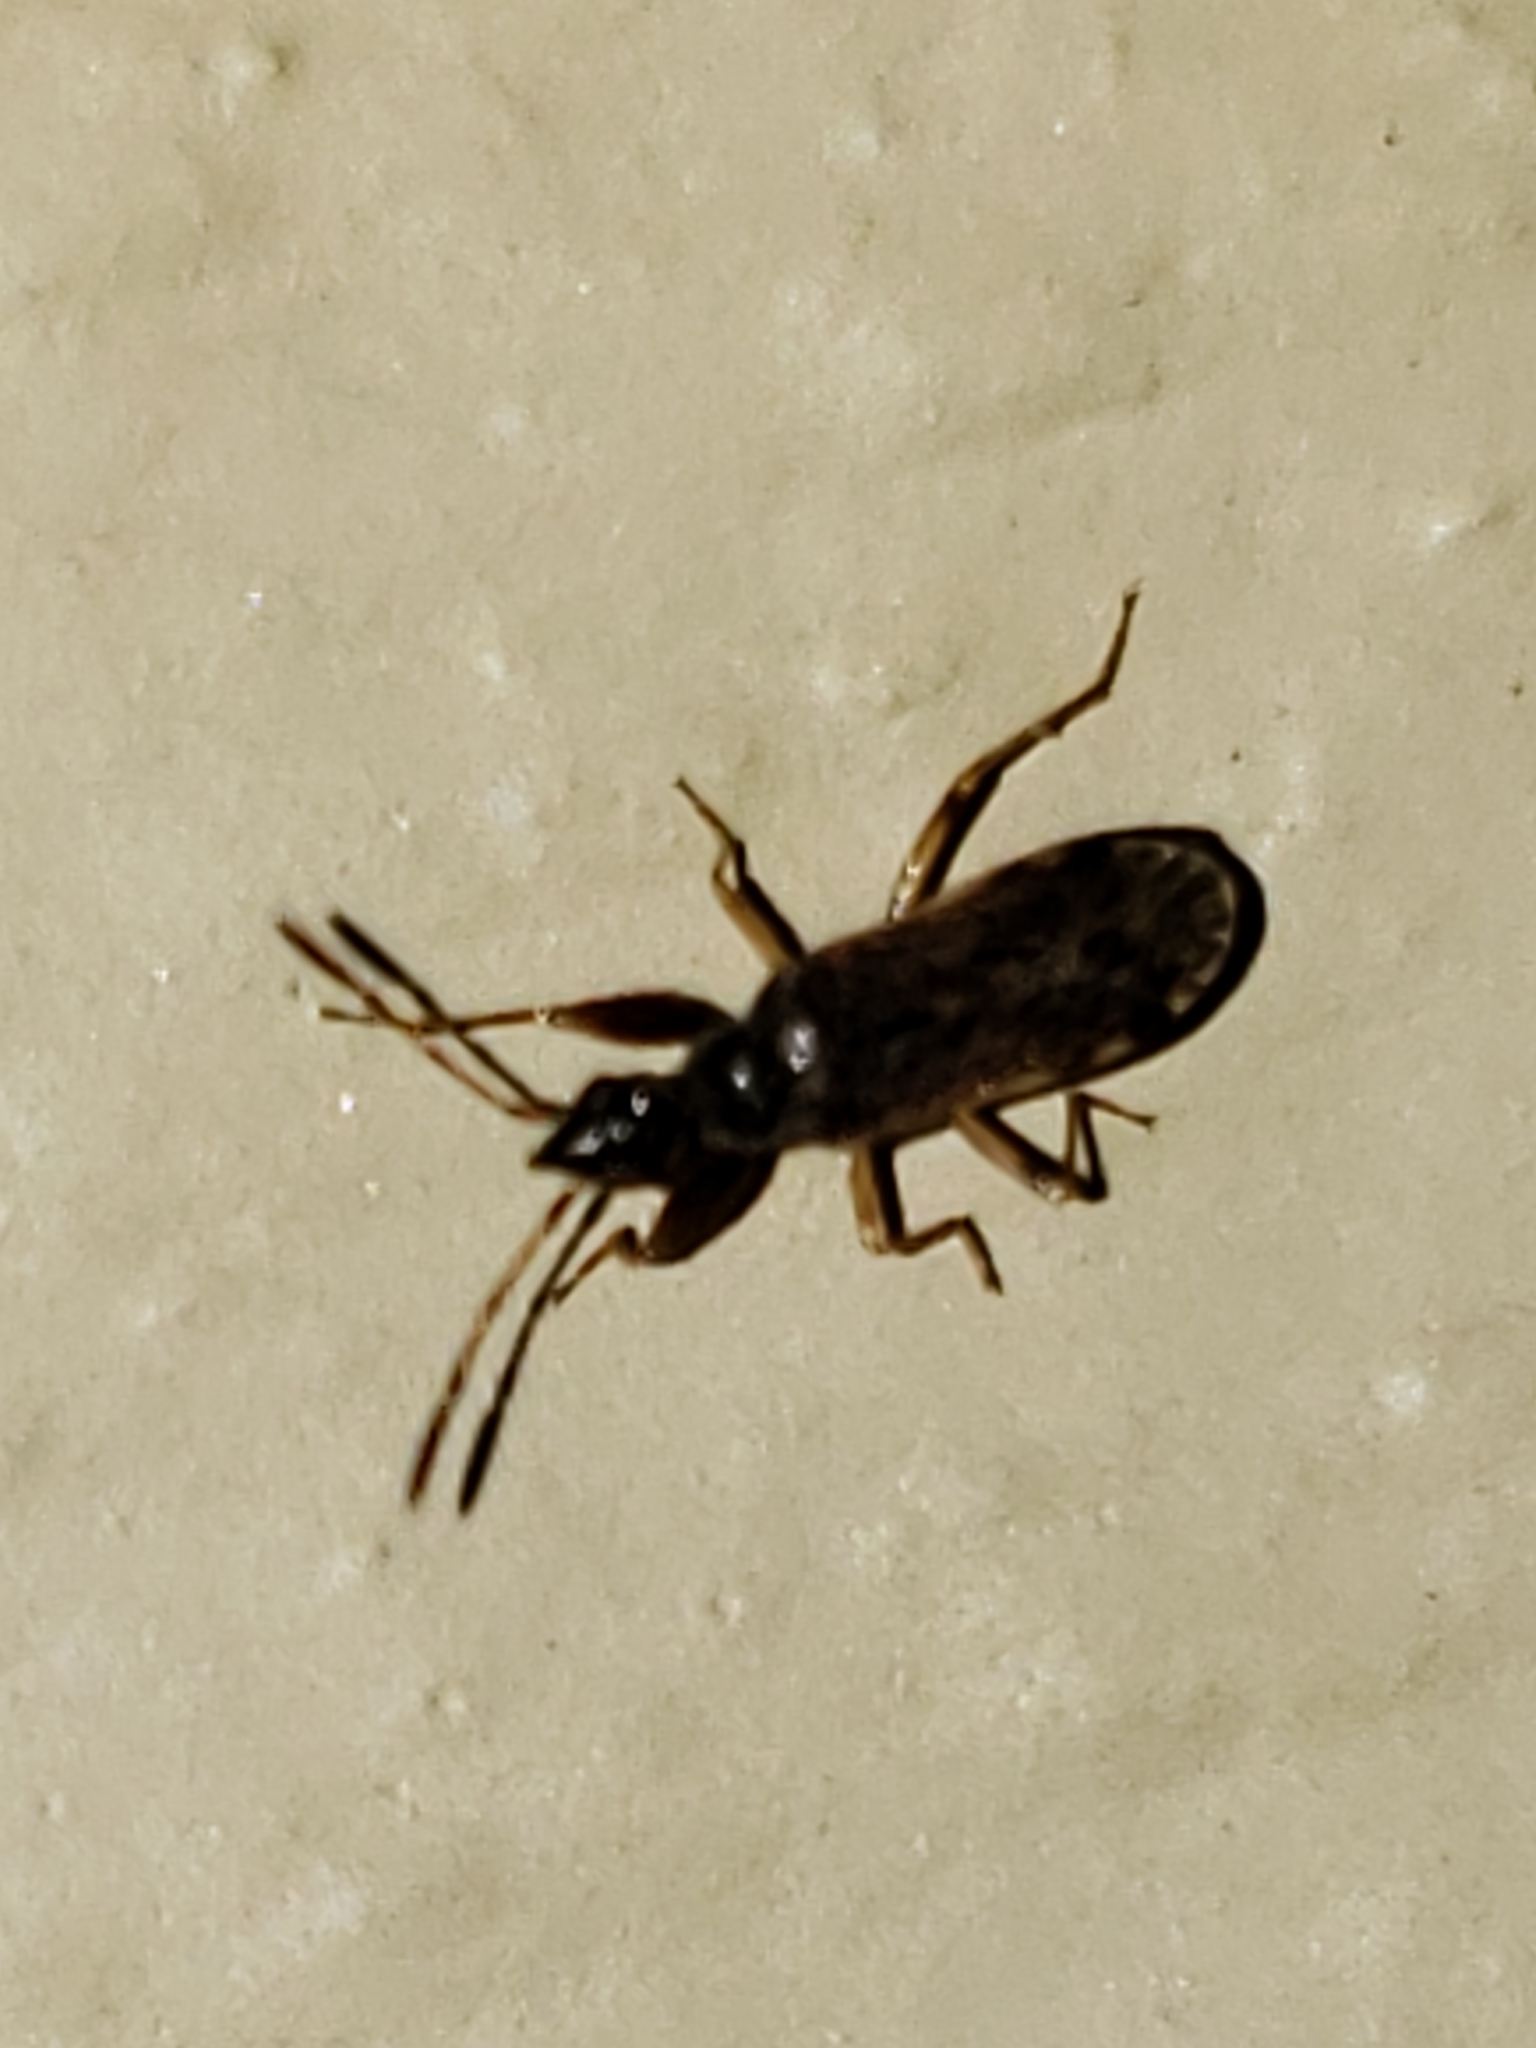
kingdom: Animalia
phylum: Arthropoda
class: Insecta
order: Hemiptera
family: Rhyparochromidae
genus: Heraeus
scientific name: Heraeus plebejus
